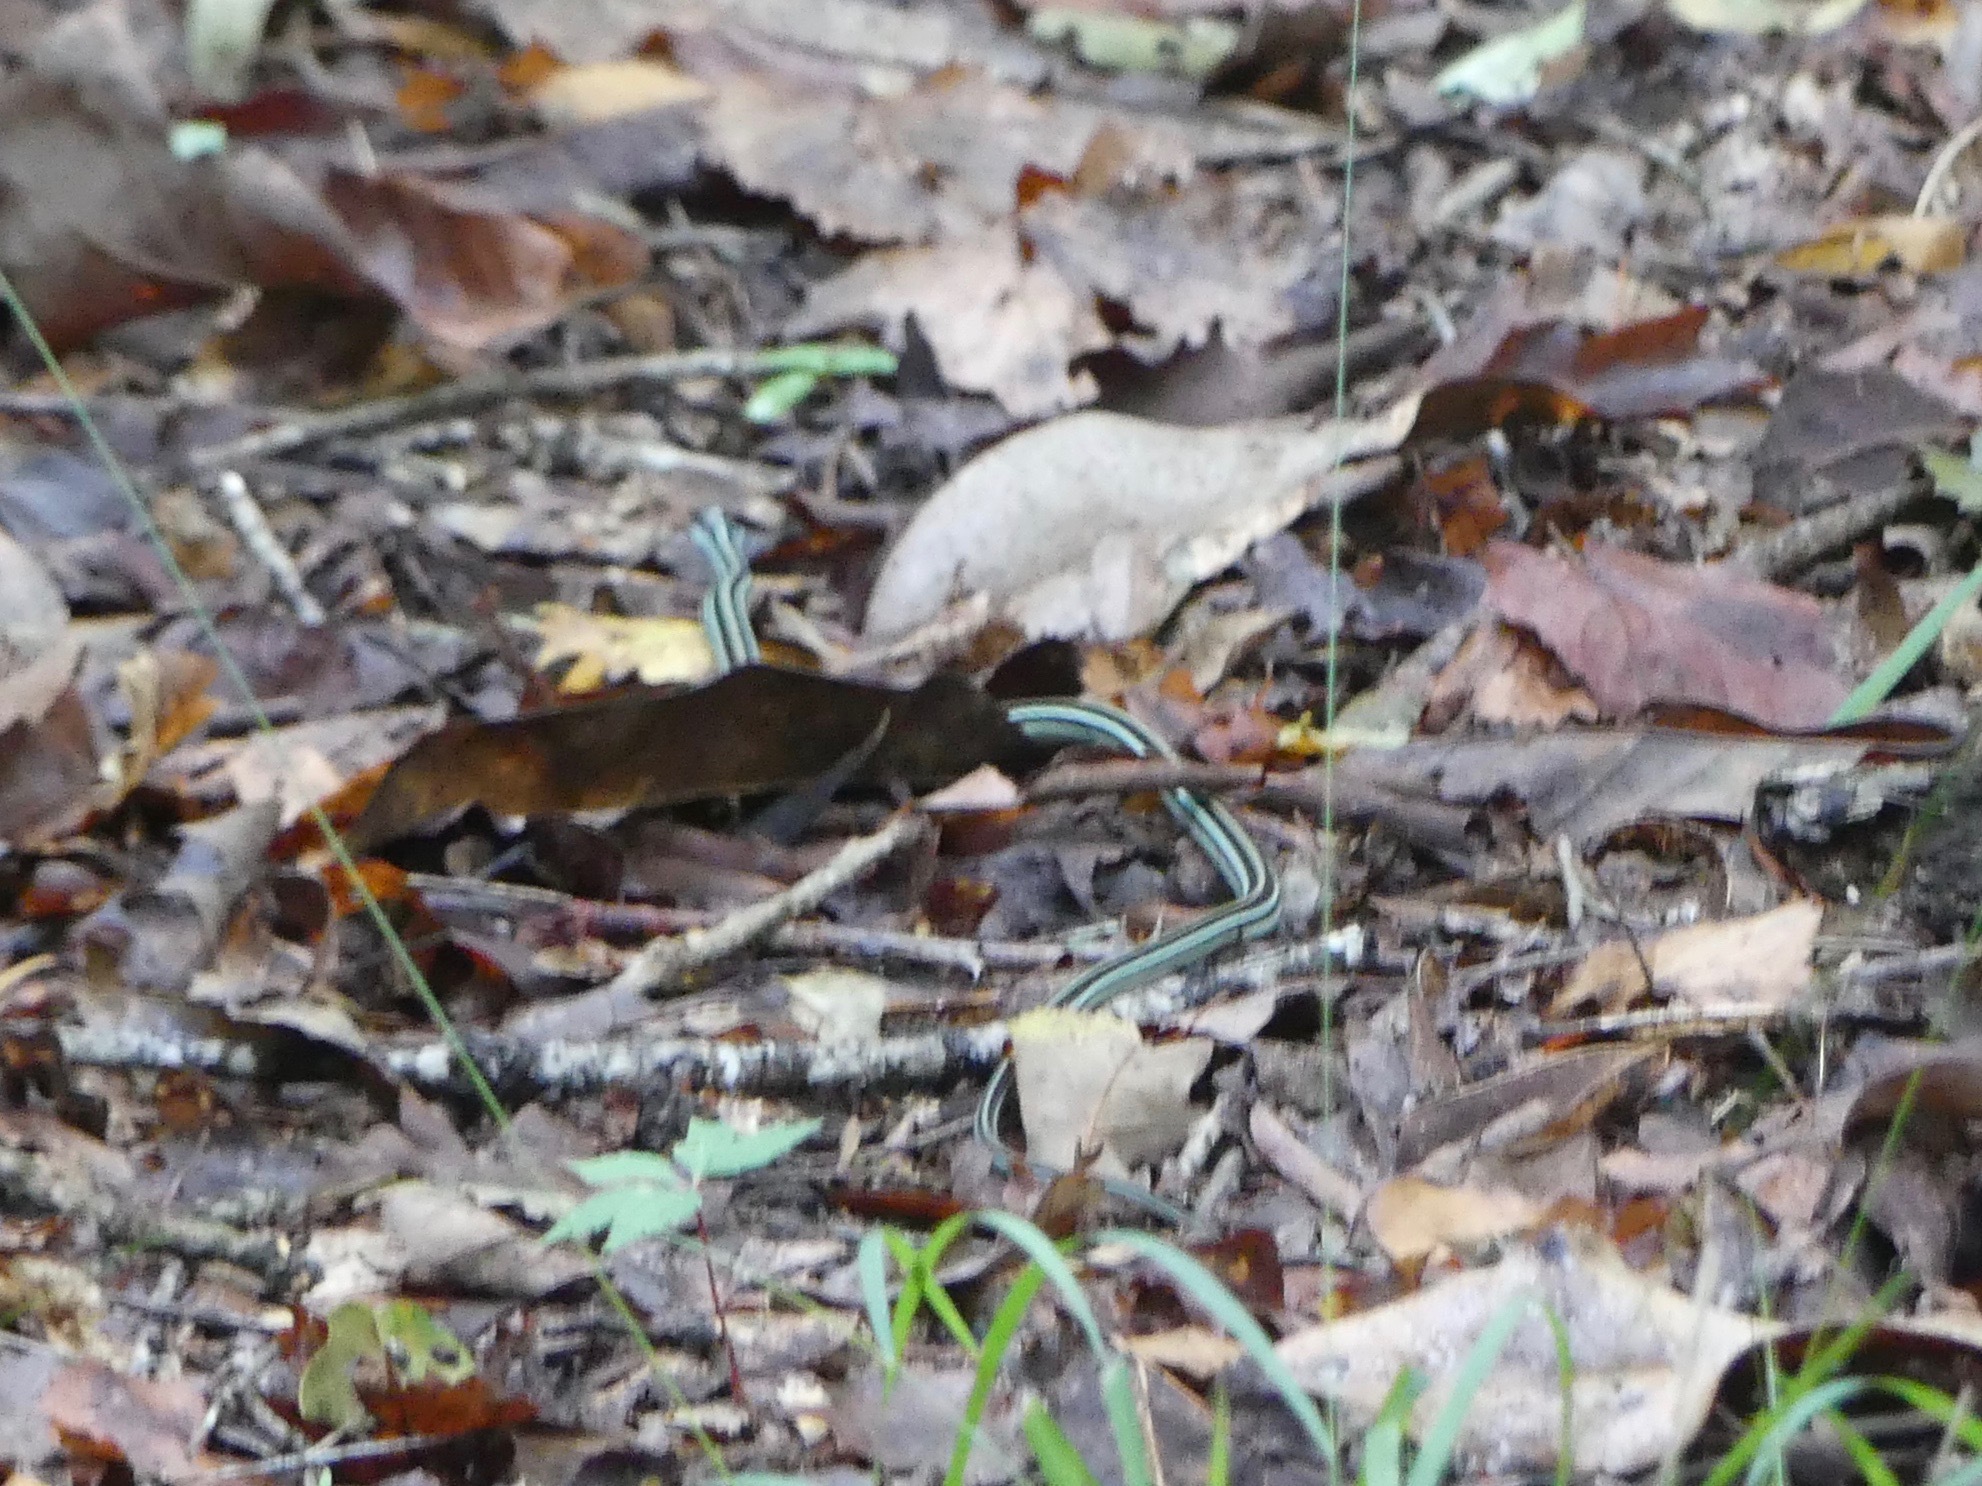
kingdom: Animalia
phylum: Chordata
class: Squamata
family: Colubridae
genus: Thamnophis
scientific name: Thamnophis proximus
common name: Western ribbon snake
